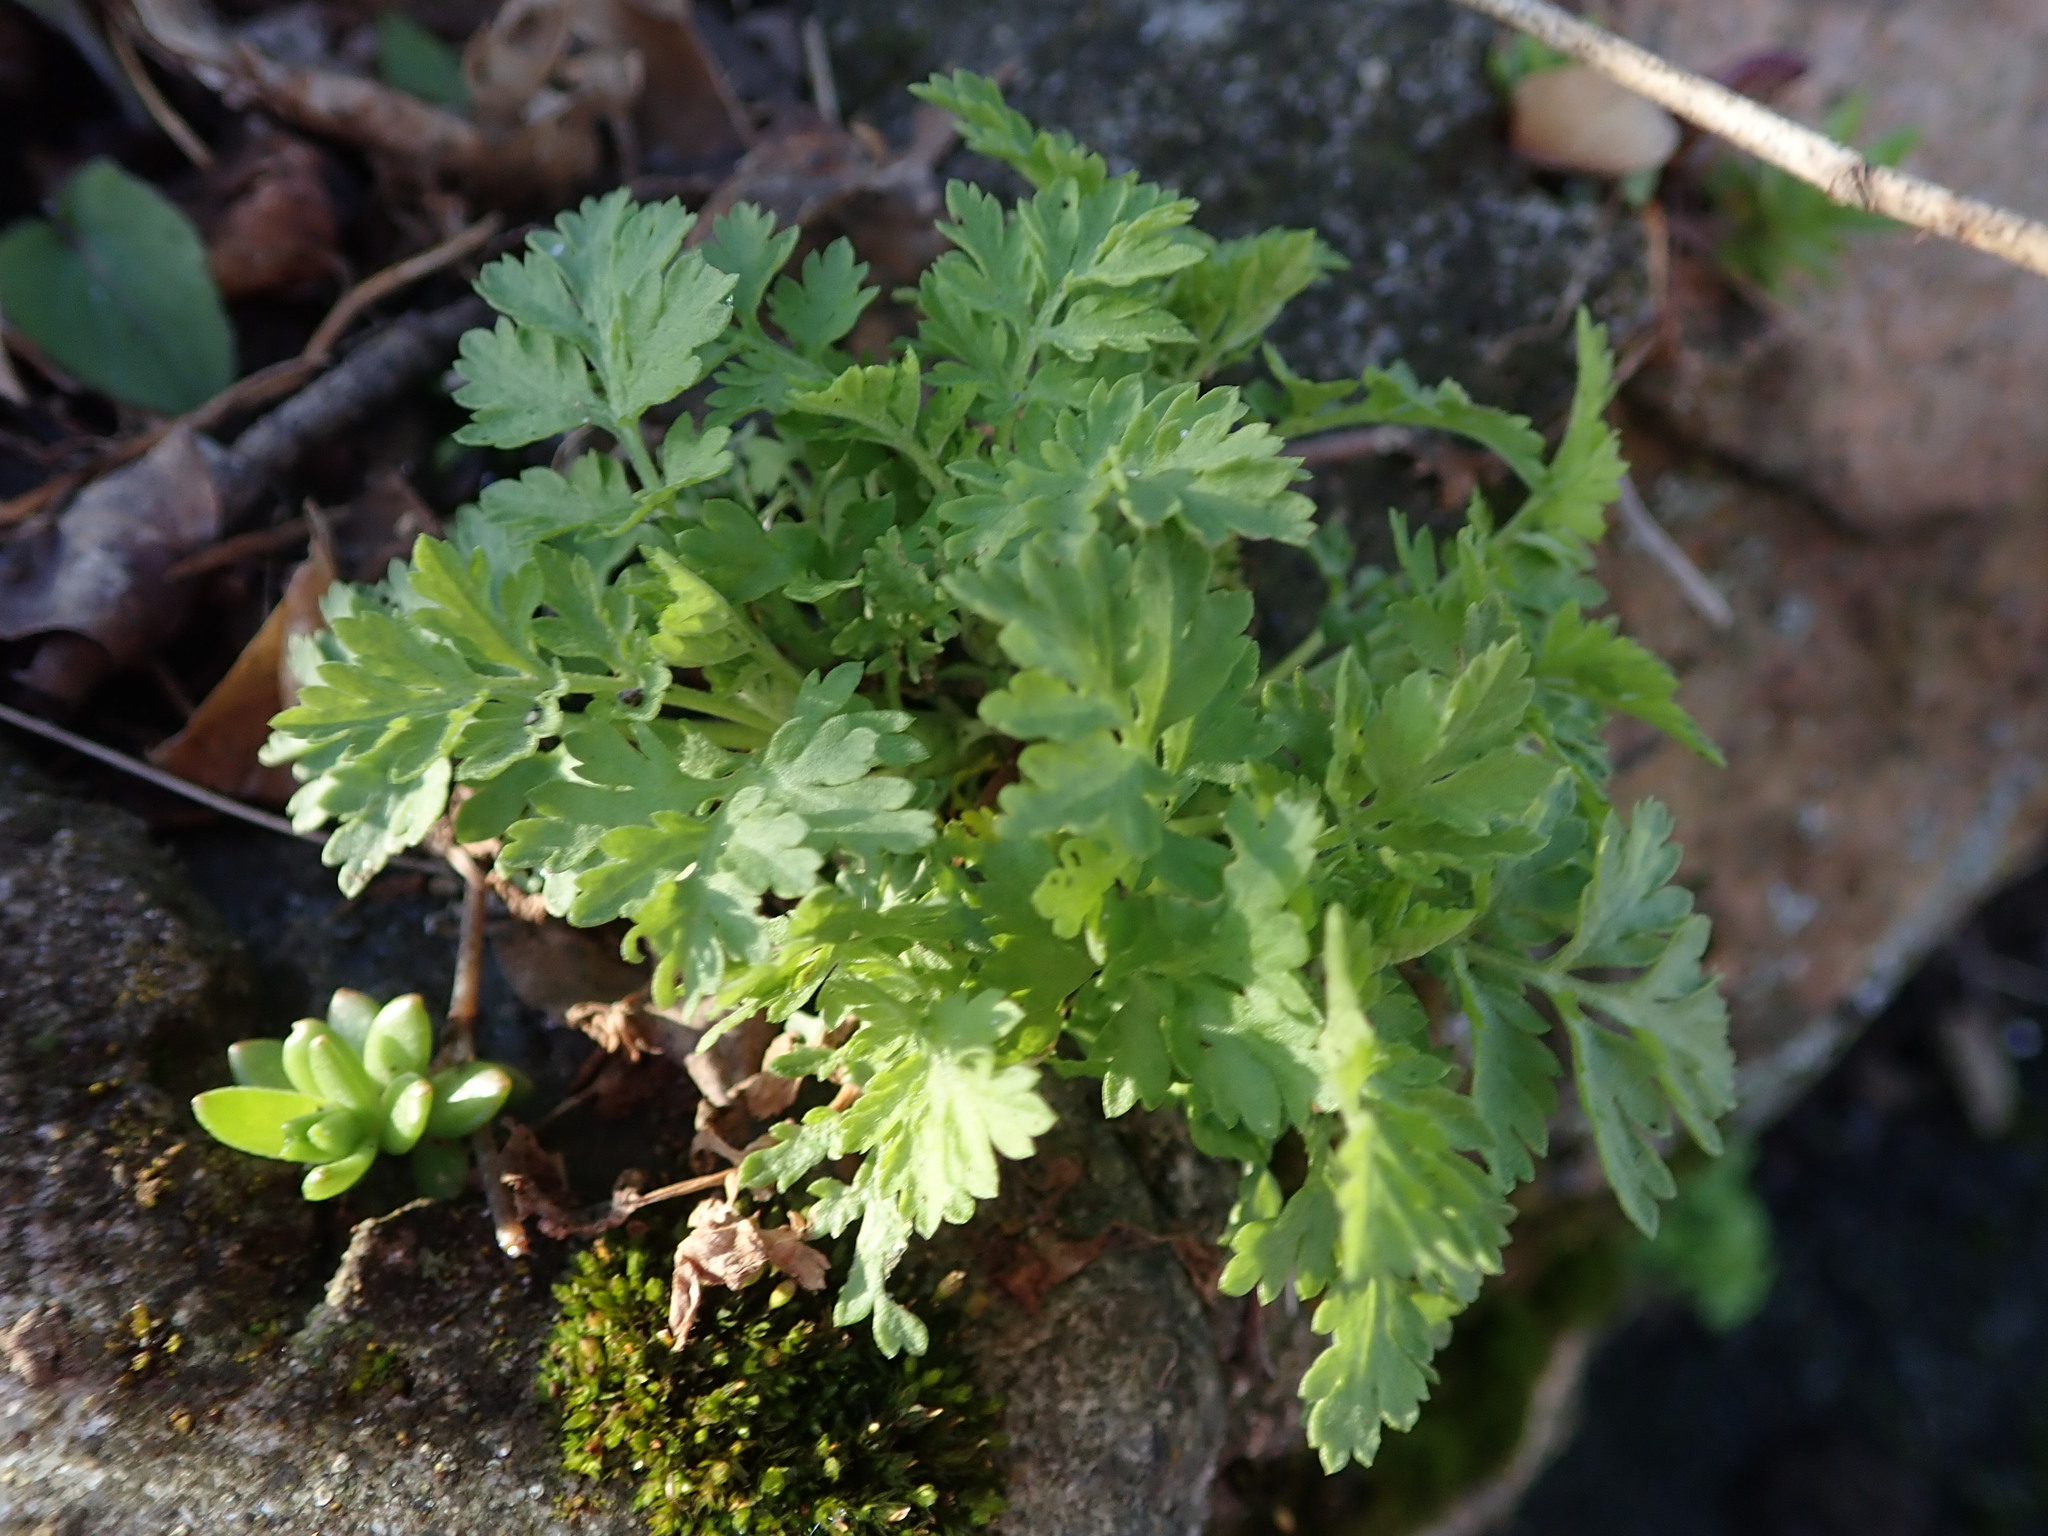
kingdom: Plantae
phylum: Tracheophyta
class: Magnoliopsida
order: Asterales
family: Asteraceae
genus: Artemisia
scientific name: Artemisia vulgaris
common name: Mugwort
